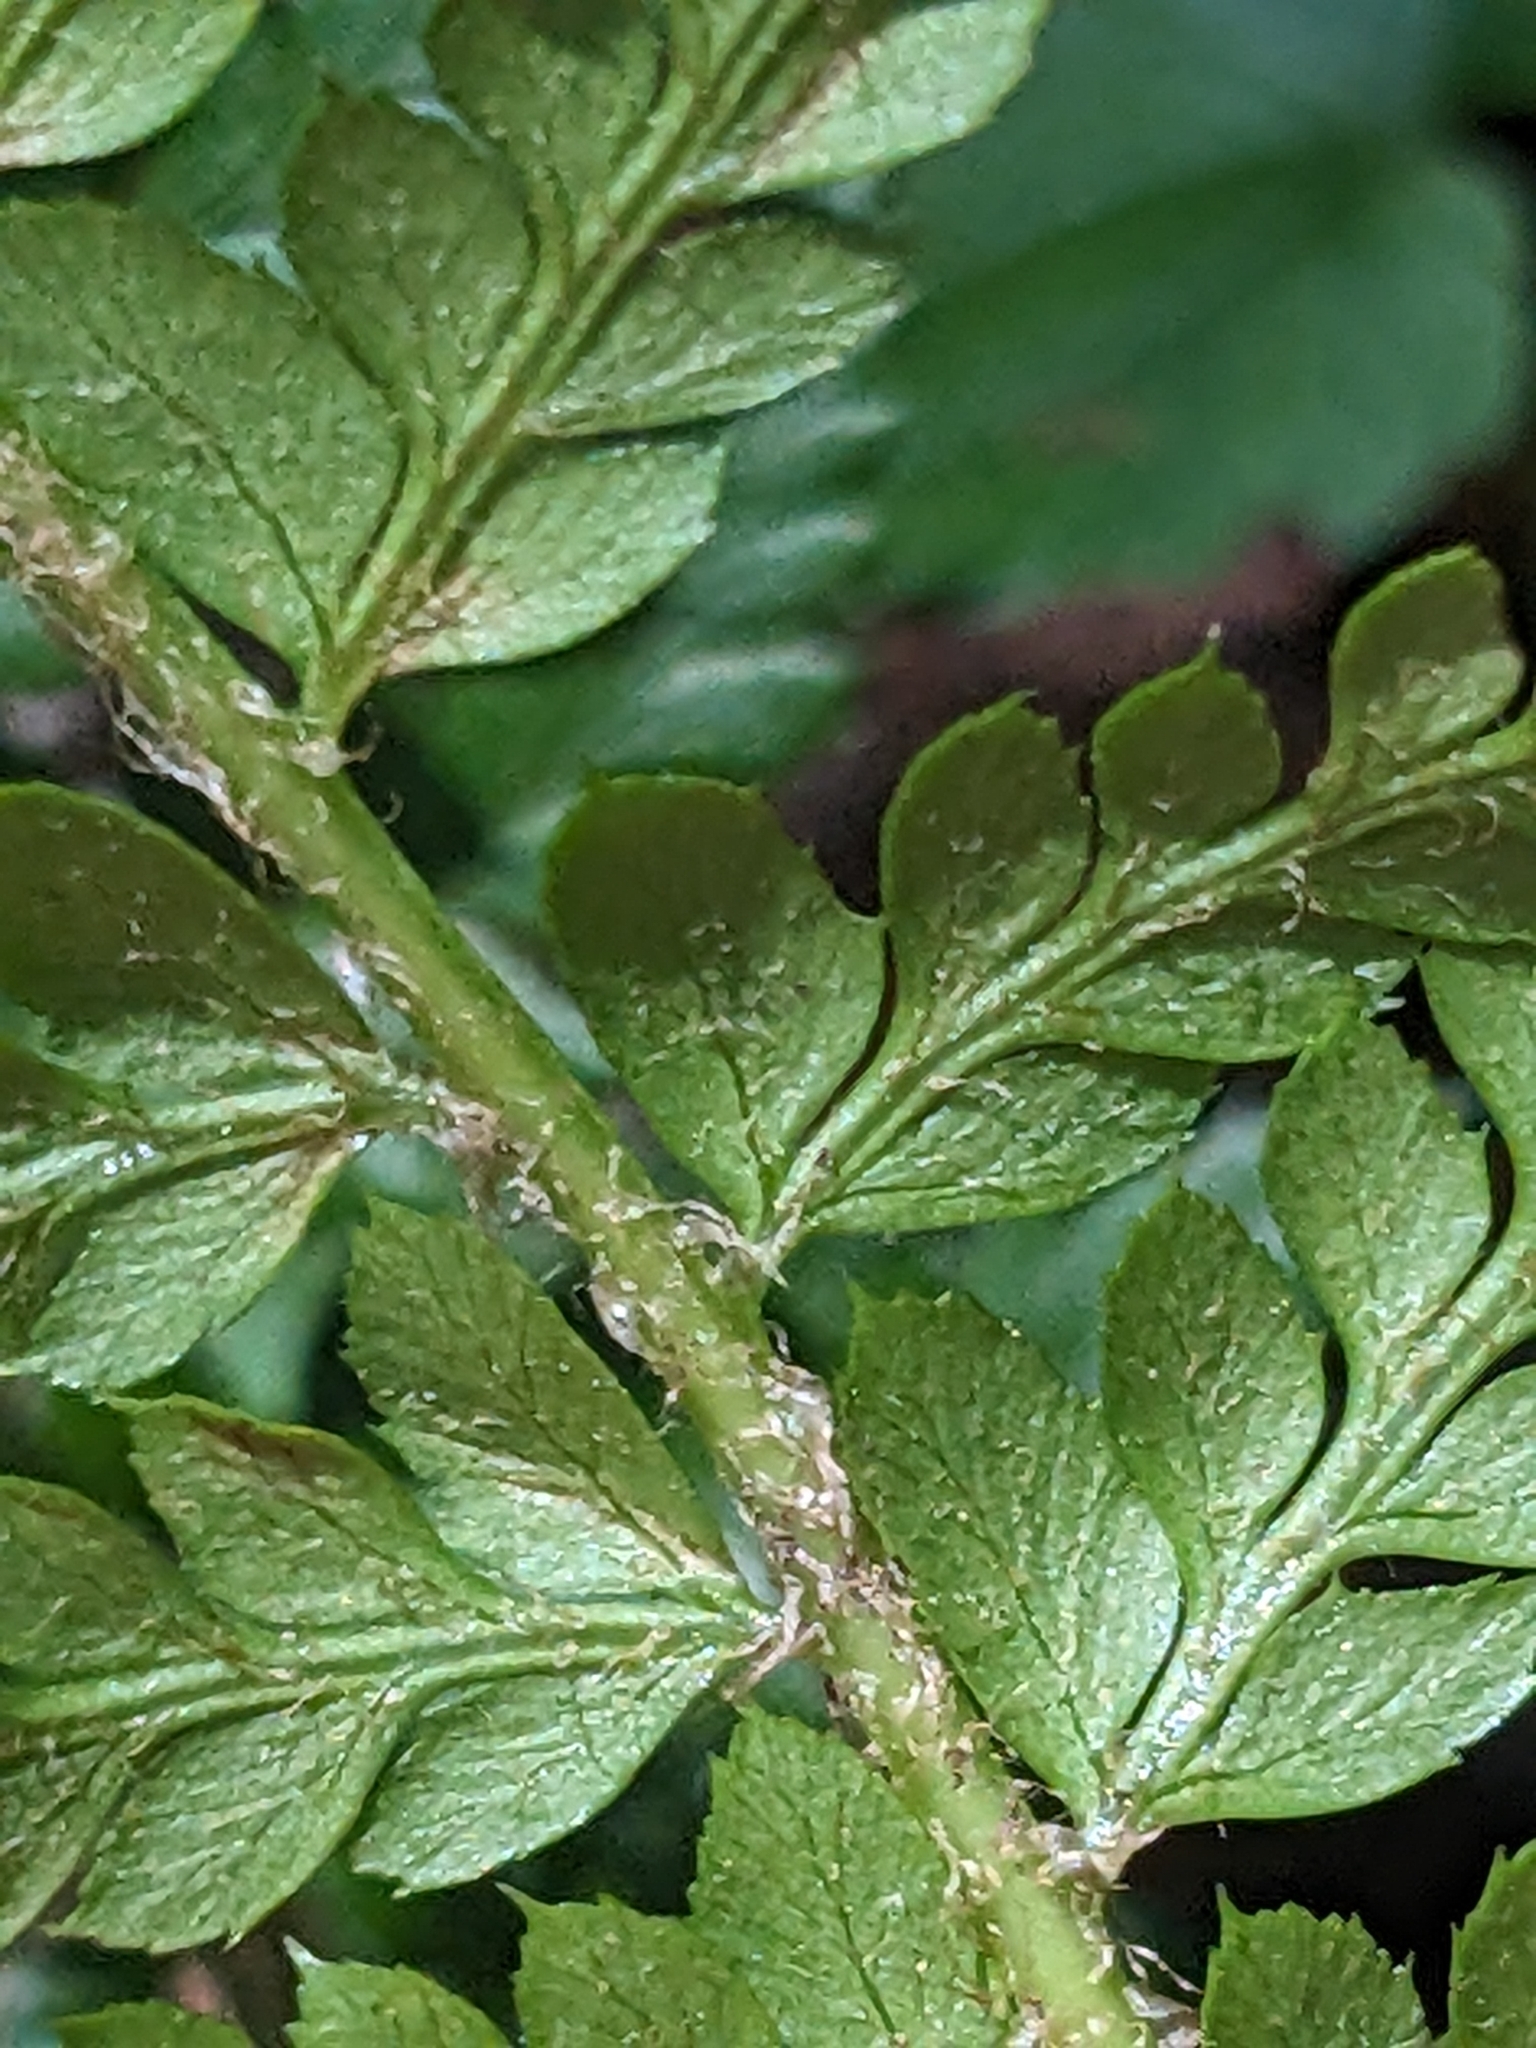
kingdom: Plantae
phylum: Tracheophyta
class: Polypodiopsida
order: Polypodiales
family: Dryopteridaceae
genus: Polystichum
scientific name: Polystichum aculeatum
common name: Hard shield-fern
